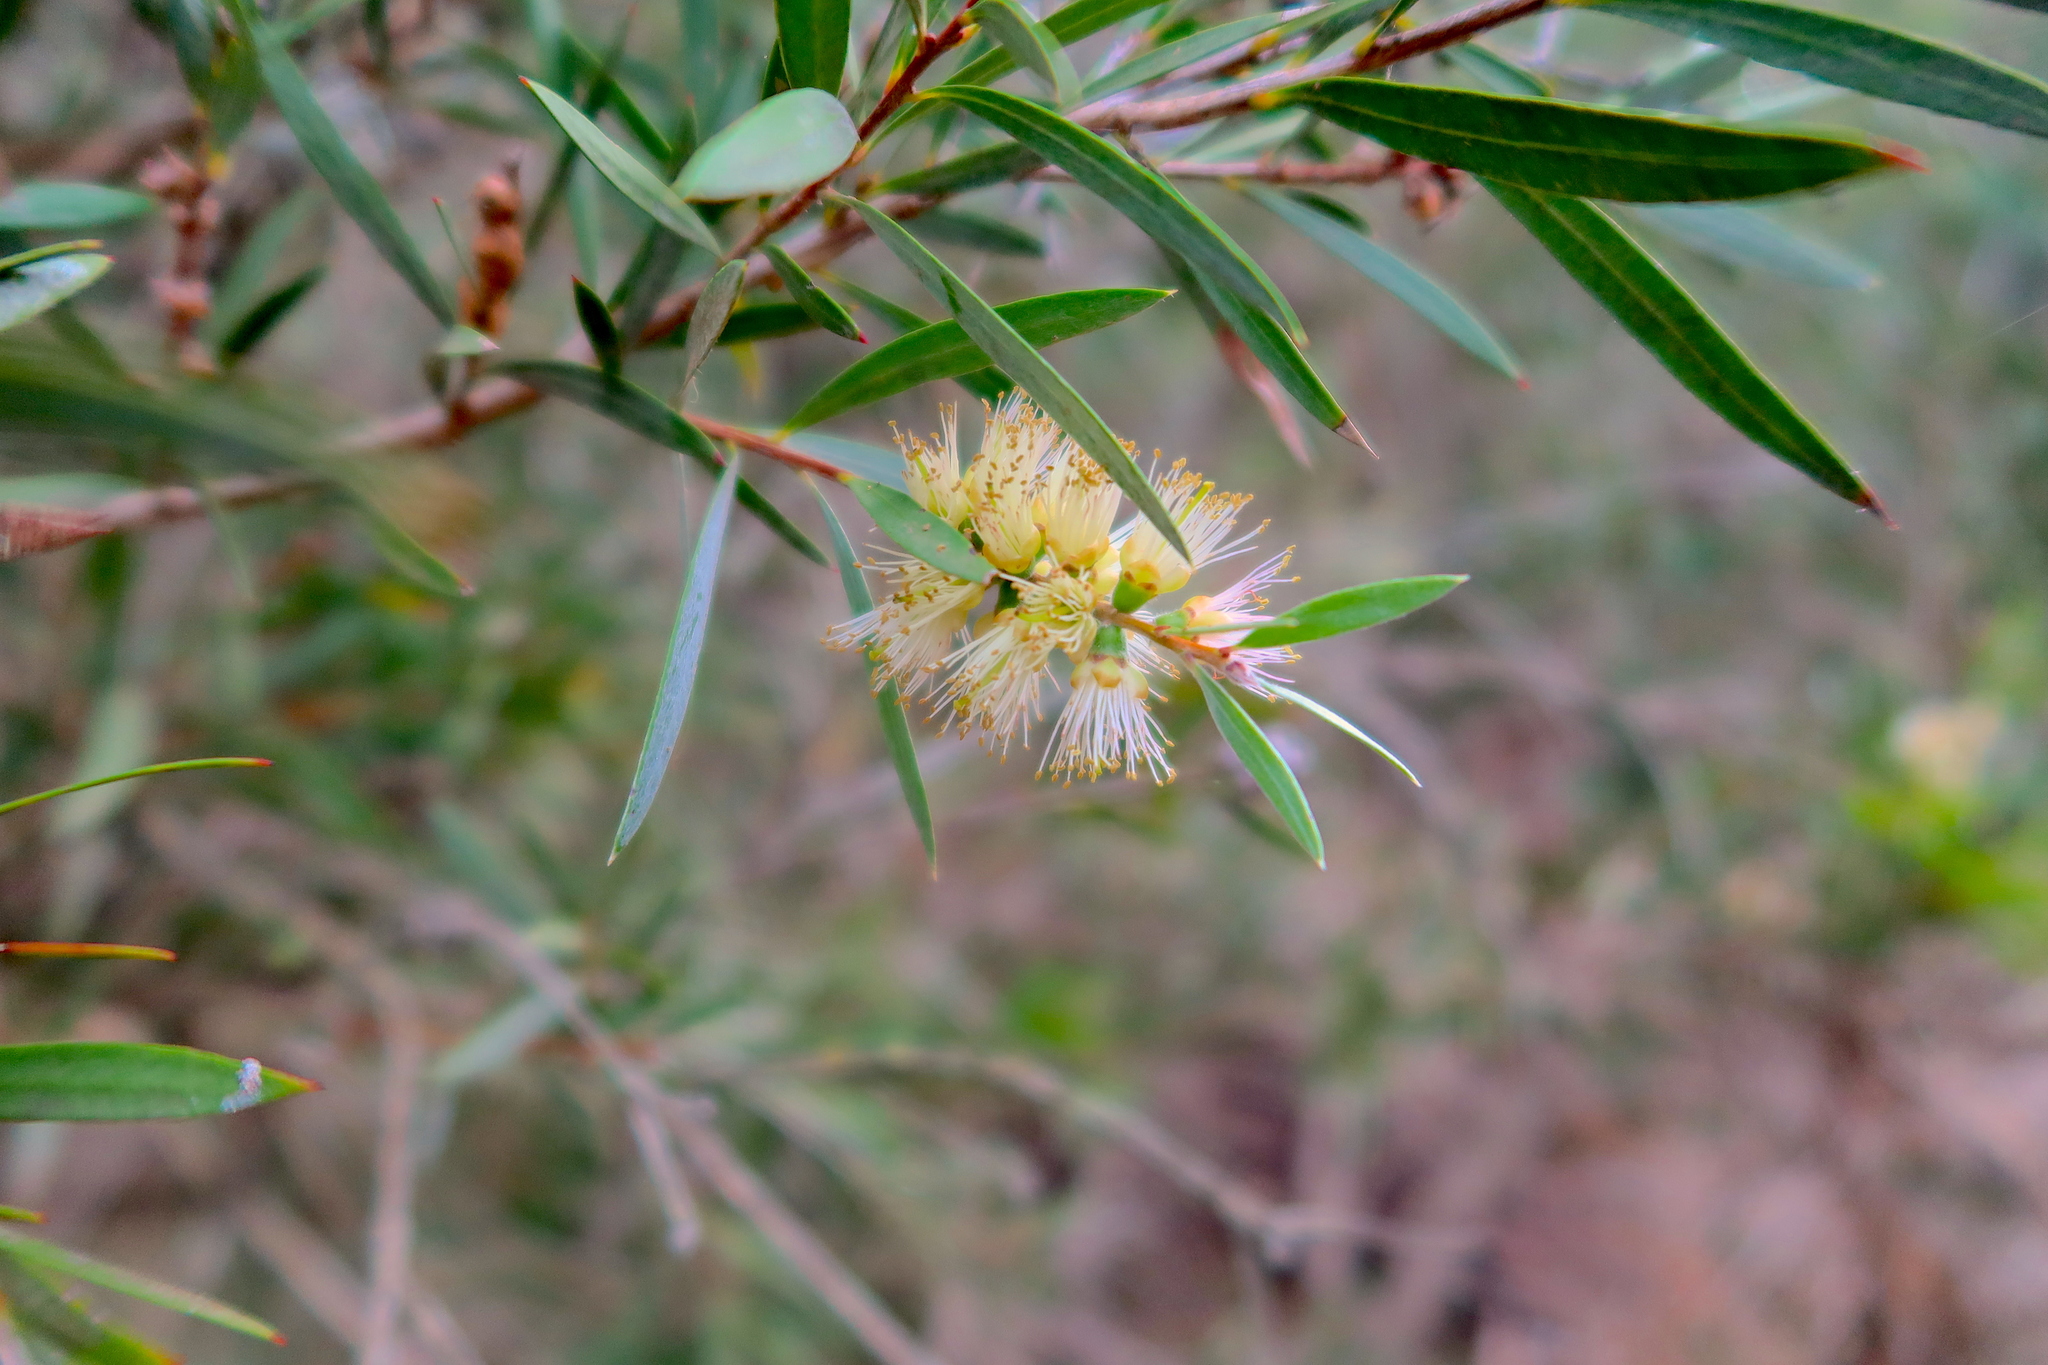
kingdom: Plantae
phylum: Tracheophyta
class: Magnoliopsida
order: Myrtales
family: Myrtaceae
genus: Callistemon
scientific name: Callistemon paludosus
